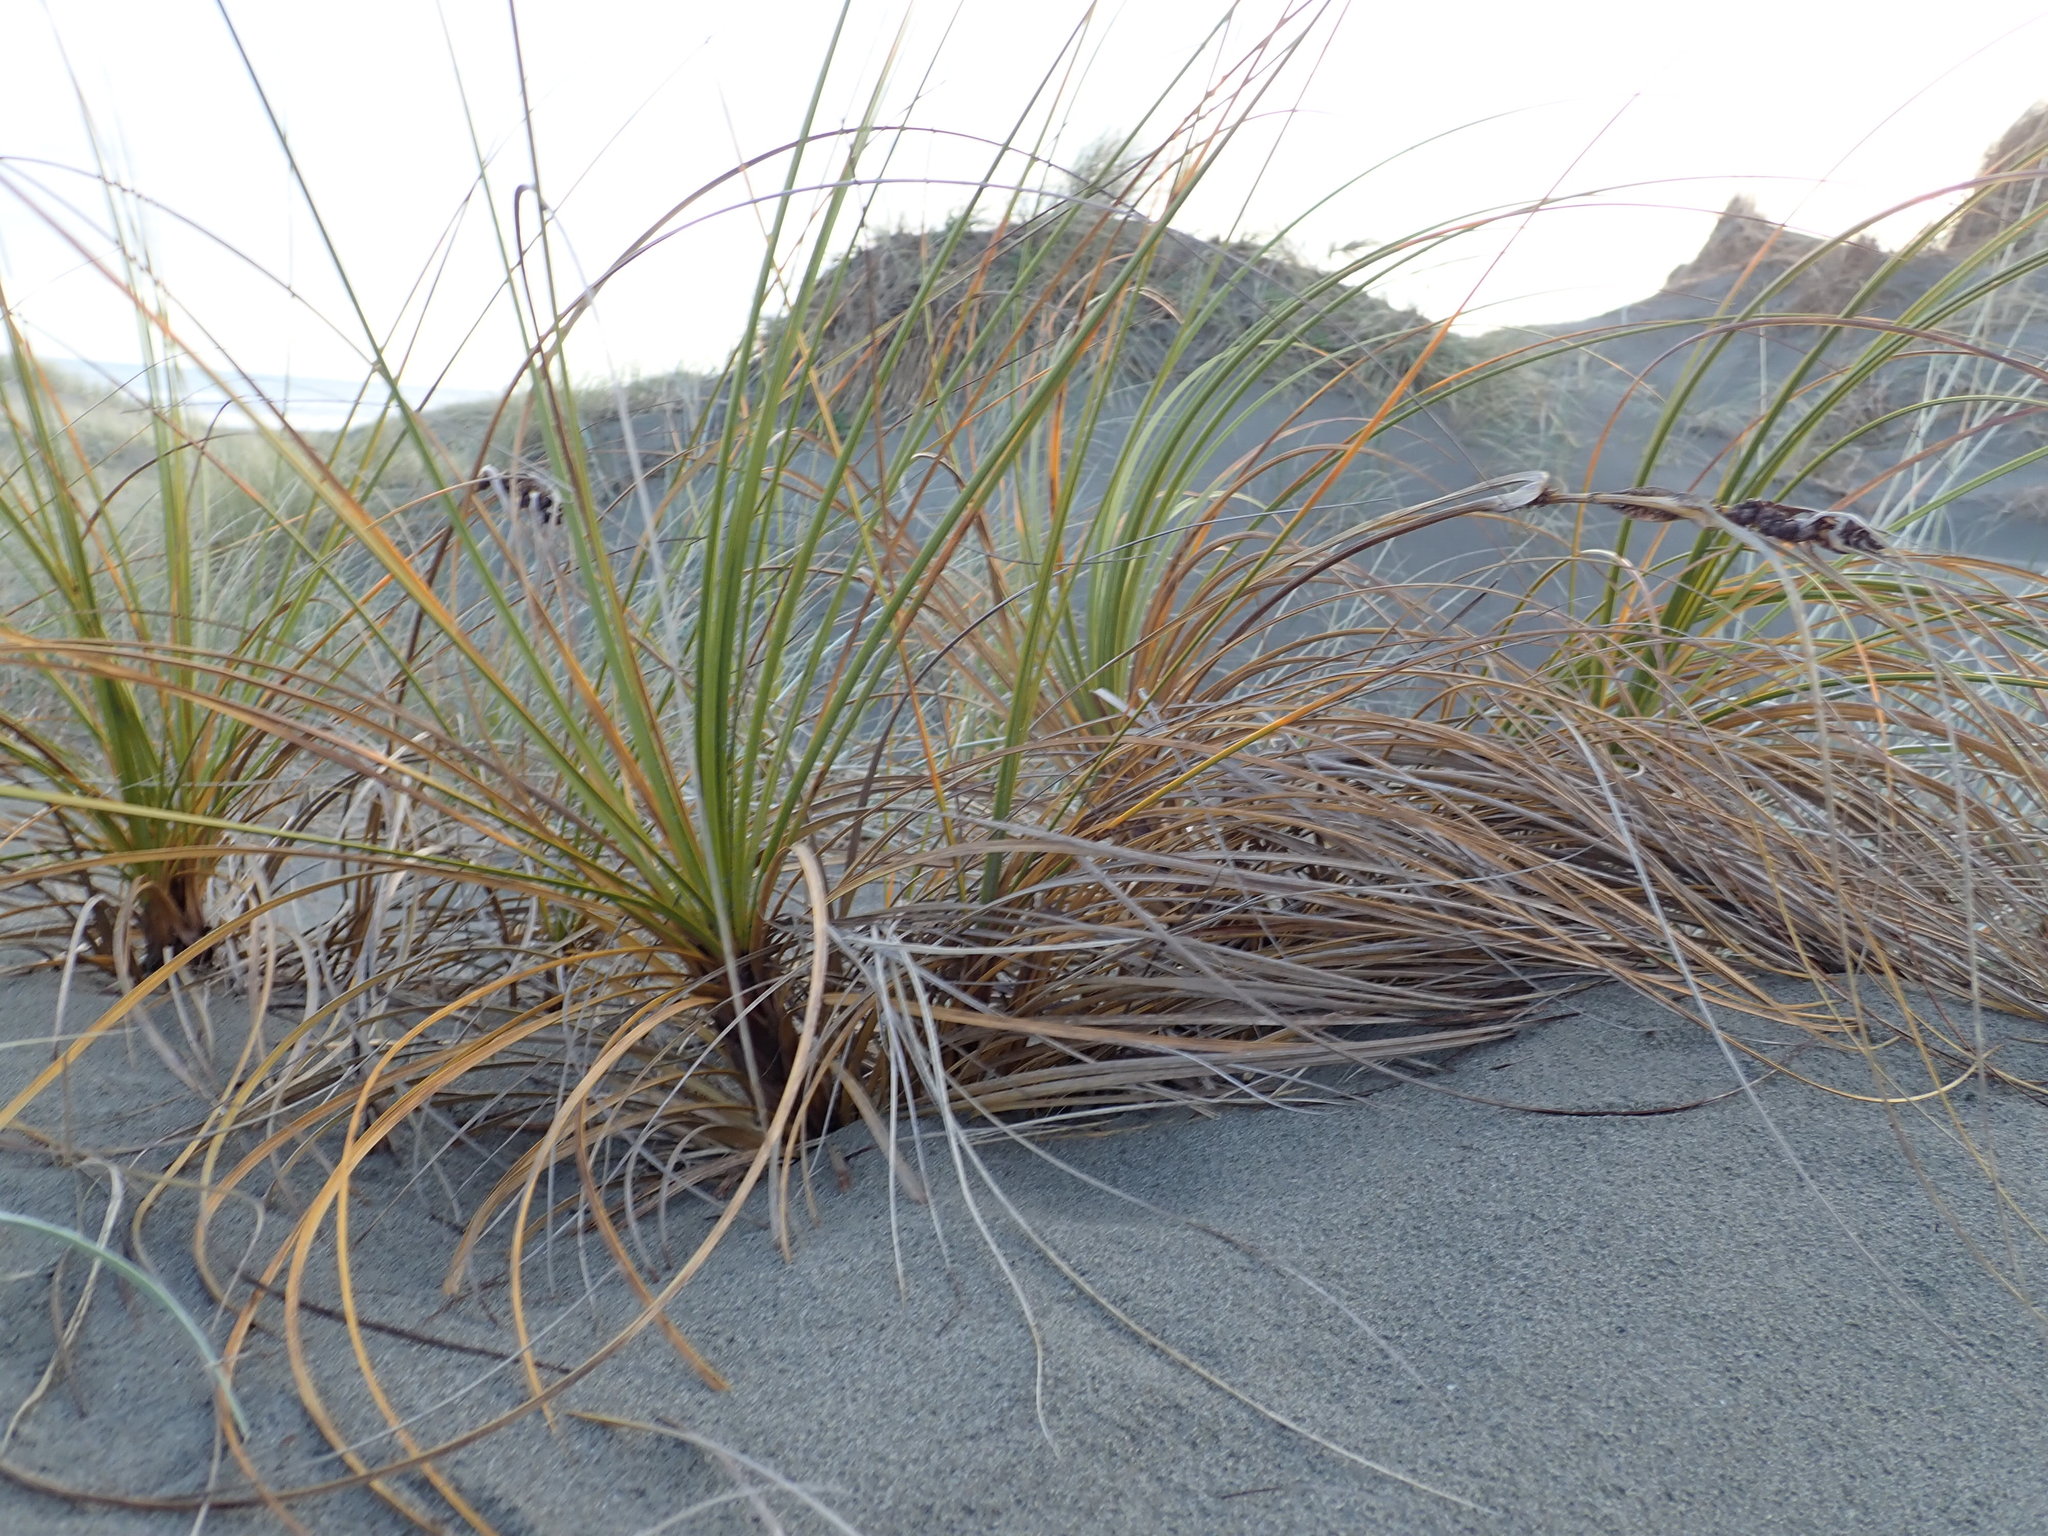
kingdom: Plantae
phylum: Tracheophyta
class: Liliopsida
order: Poales
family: Cyperaceae
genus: Ficinia
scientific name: Ficinia spiralis
